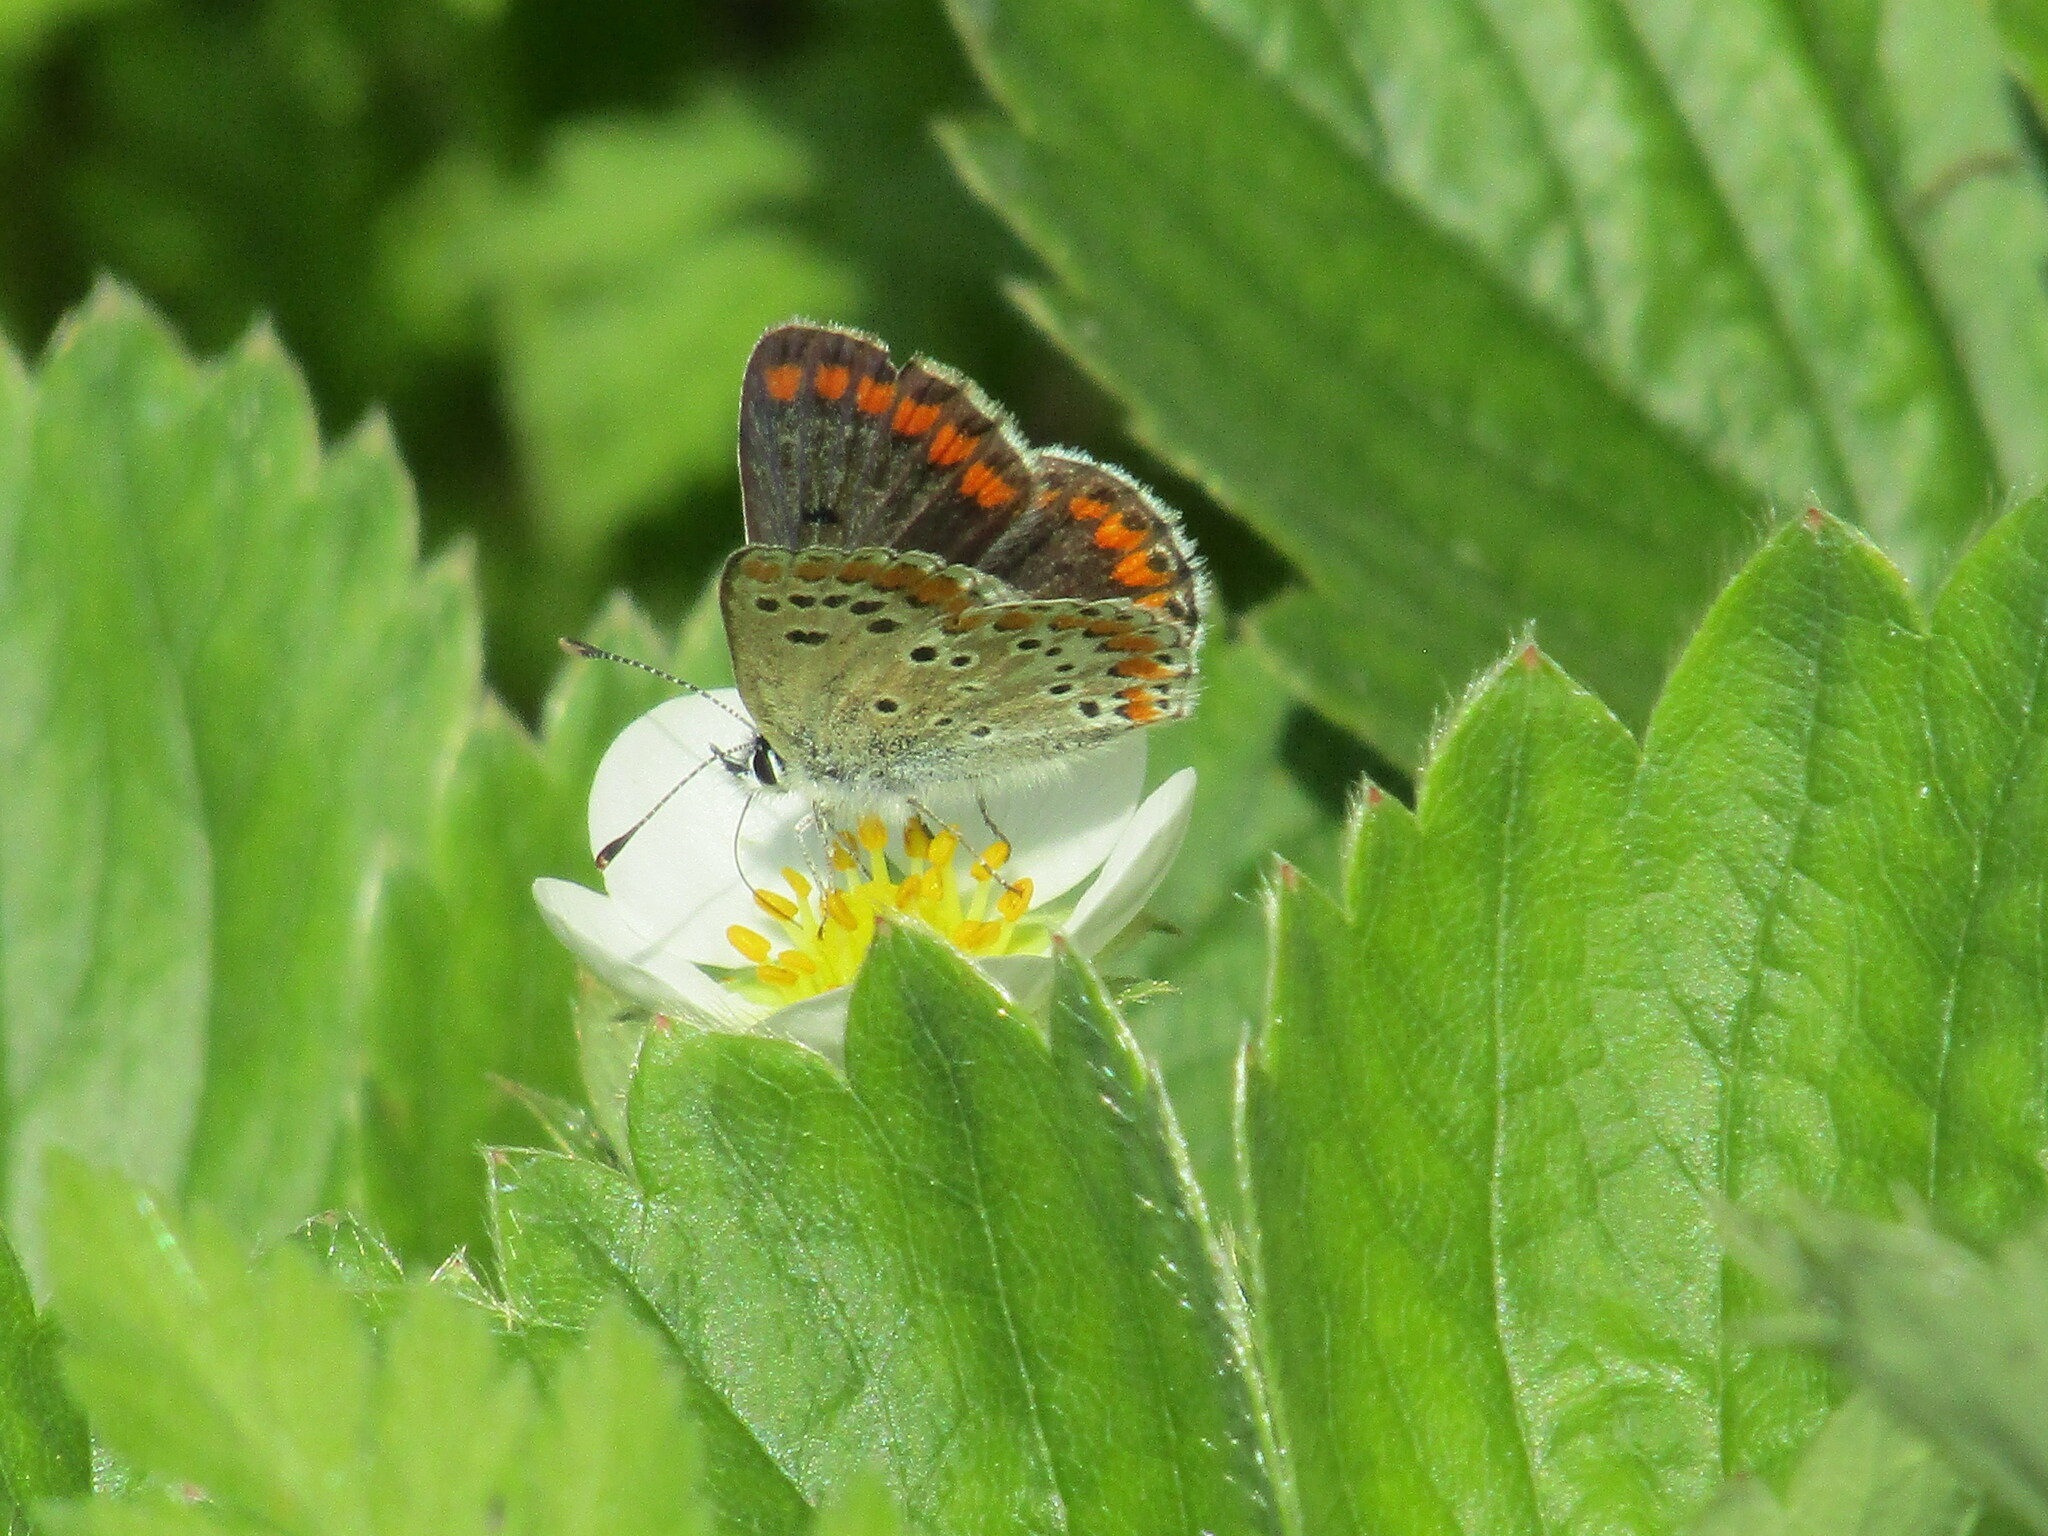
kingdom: Animalia
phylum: Arthropoda
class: Insecta
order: Lepidoptera
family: Lycaenidae
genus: Aricia
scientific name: Aricia agestis
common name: Brown argus
